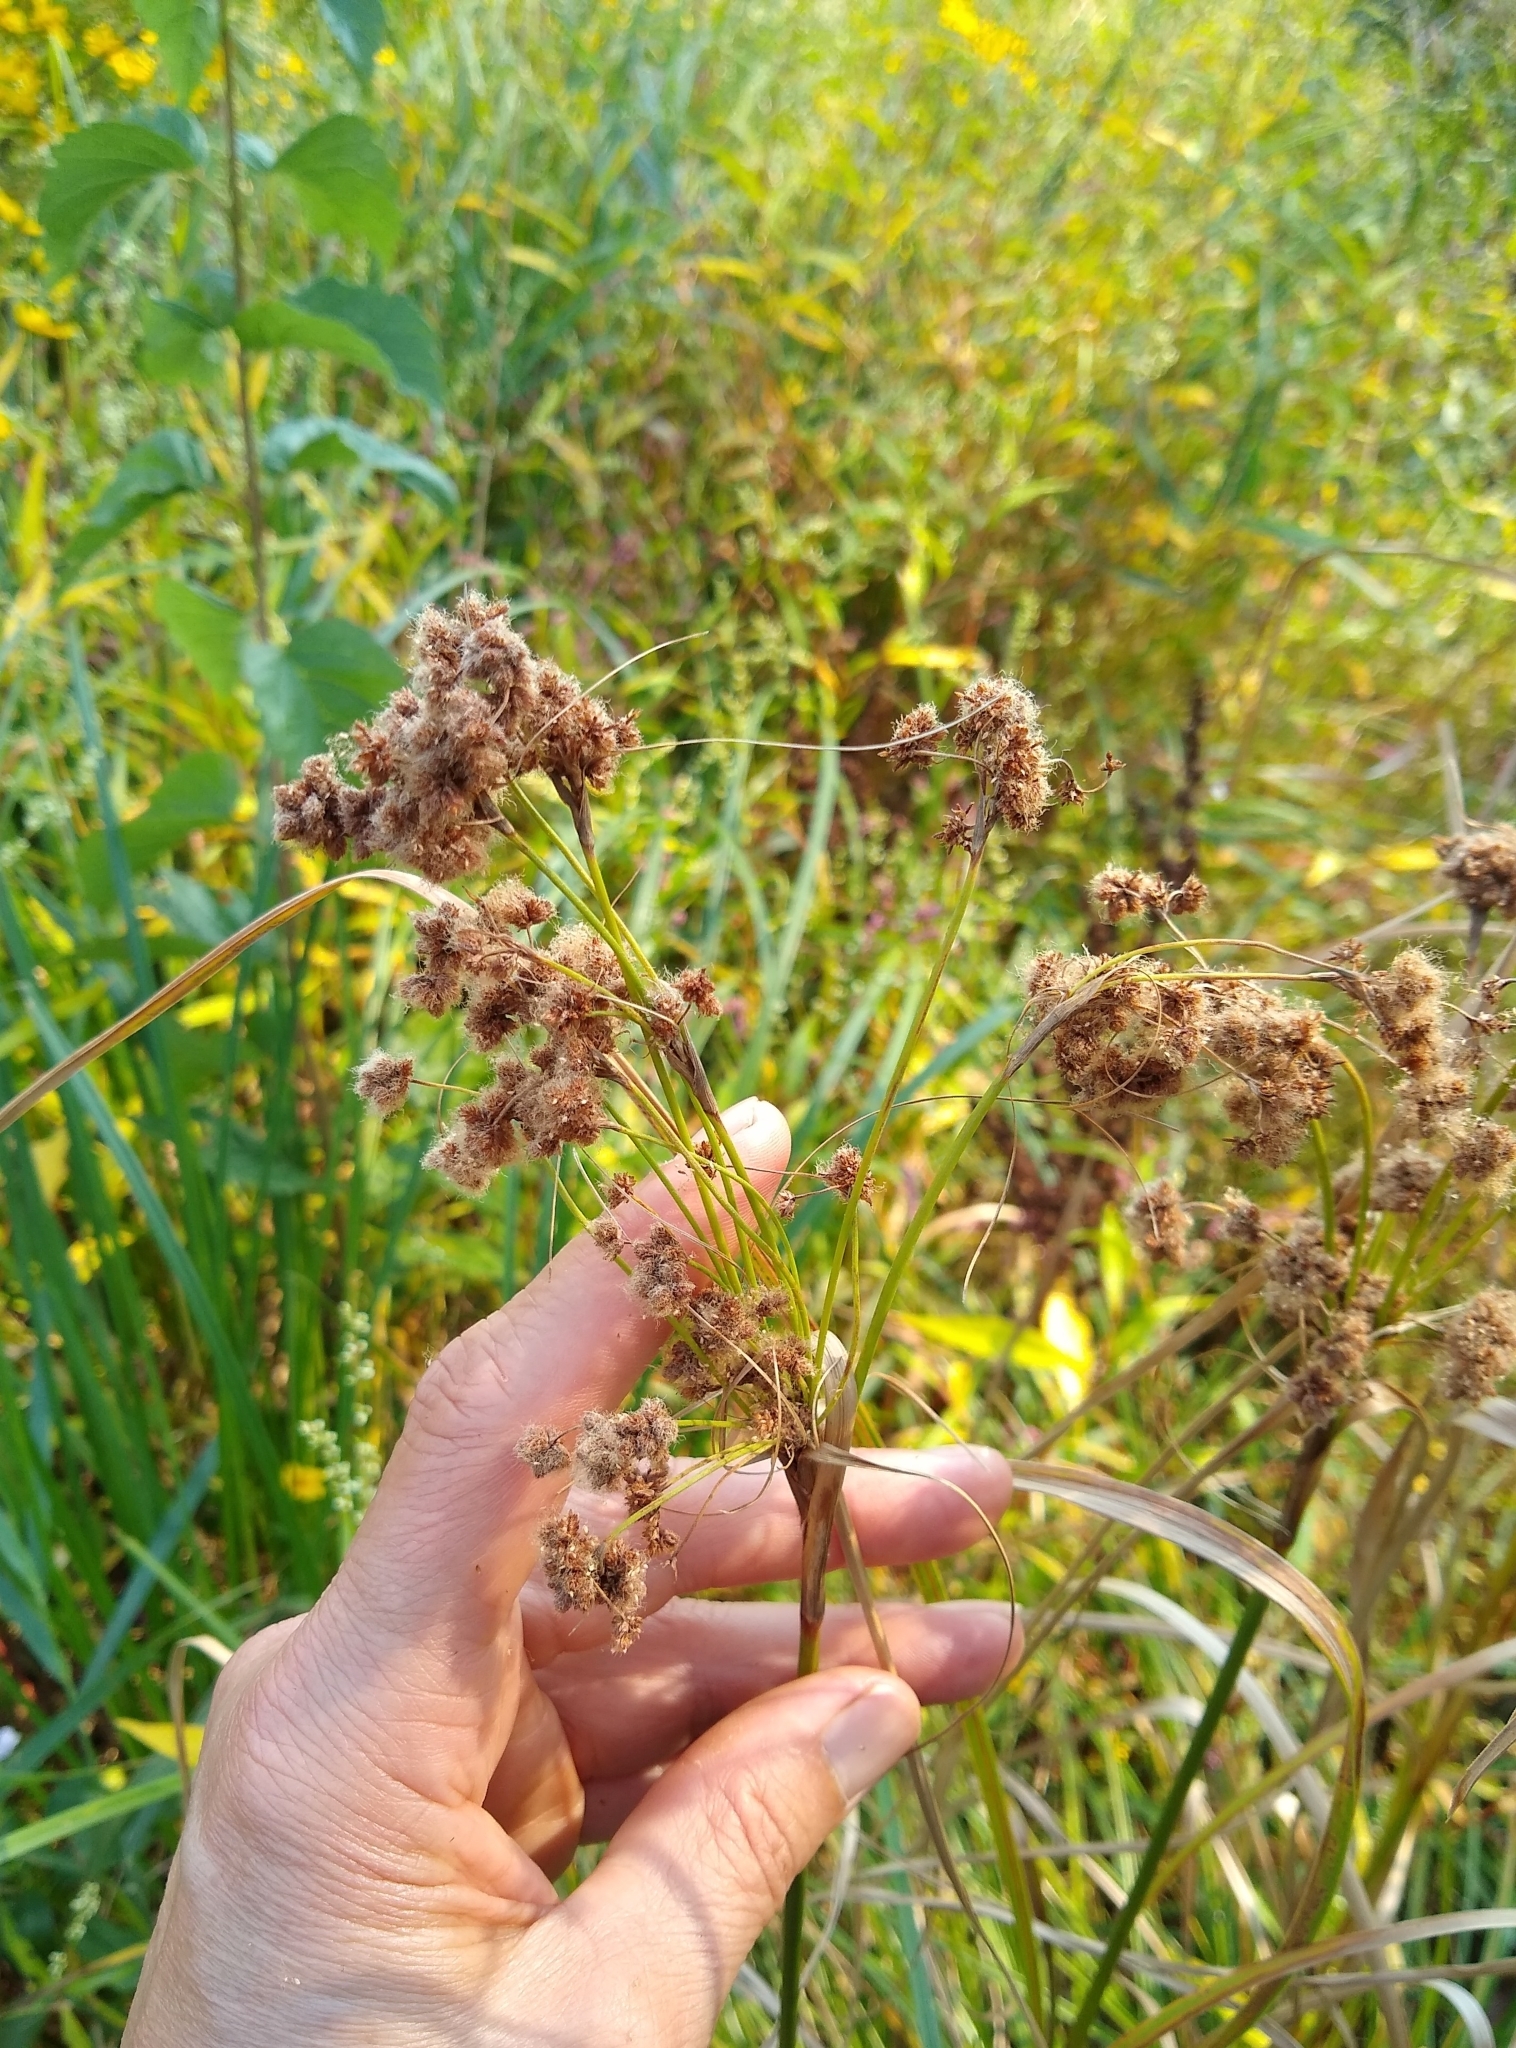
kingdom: Plantae
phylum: Tracheophyta
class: Liliopsida
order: Poales
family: Cyperaceae
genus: Scirpus
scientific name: Scirpus cyperinus
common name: Black-sheathed bulrush
